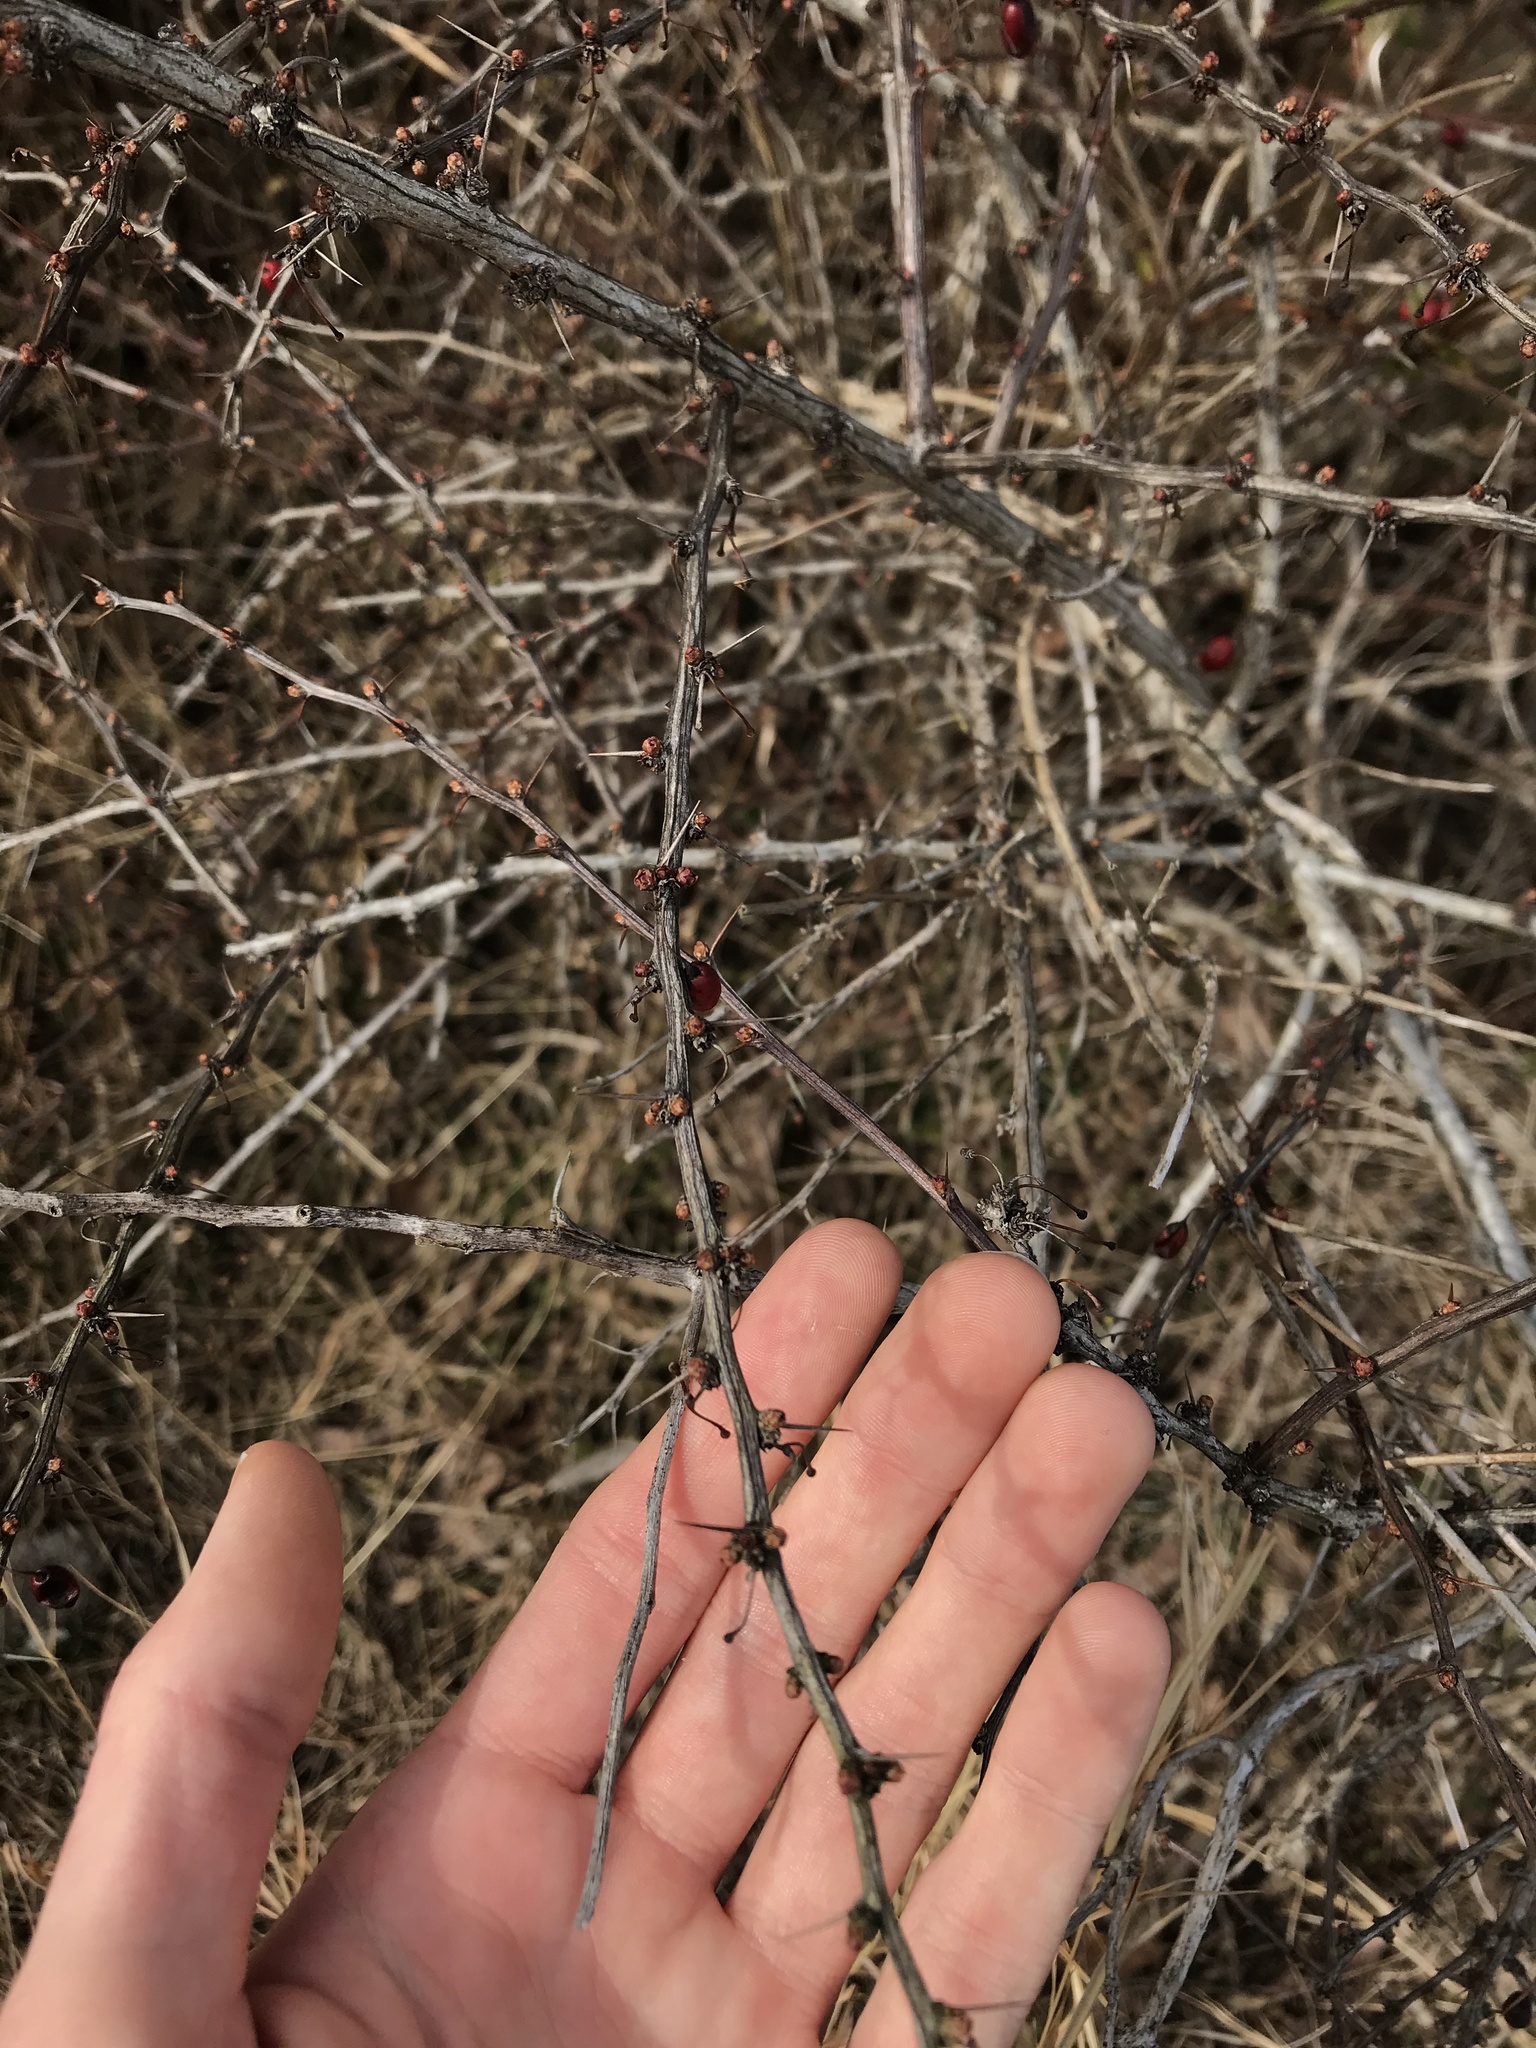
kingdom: Plantae
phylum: Tracheophyta
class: Magnoliopsida
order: Ranunculales
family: Berberidaceae
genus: Berberis
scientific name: Berberis thunbergii
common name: Japanese barberry
